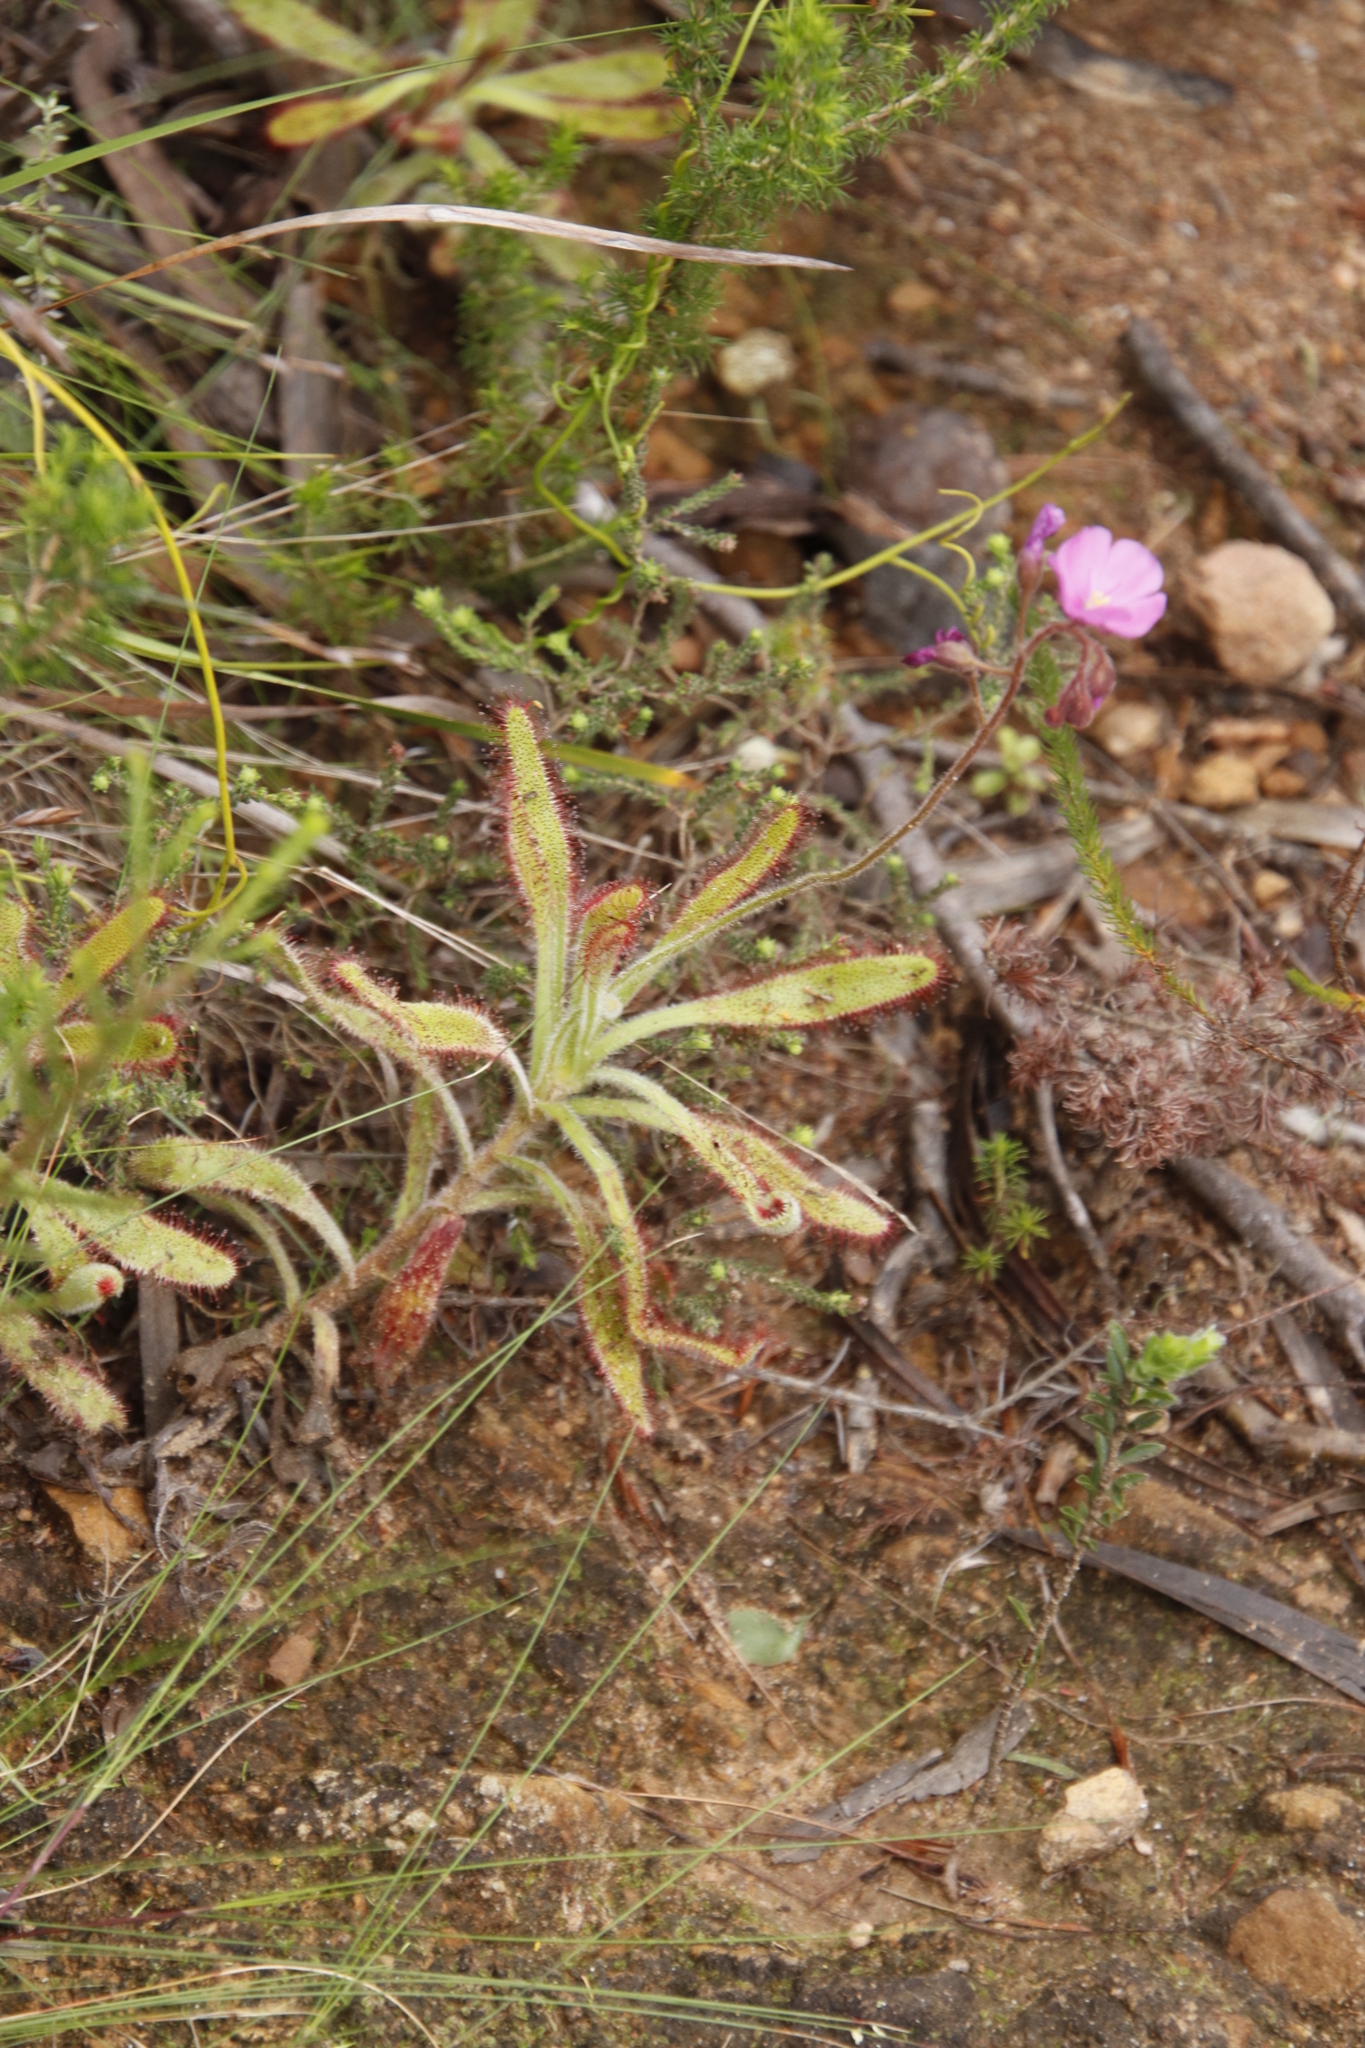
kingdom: Plantae
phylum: Tracheophyta
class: Magnoliopsida
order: Caryophyllales
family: Droseraceae
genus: Drosera
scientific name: Drosera hilaris
